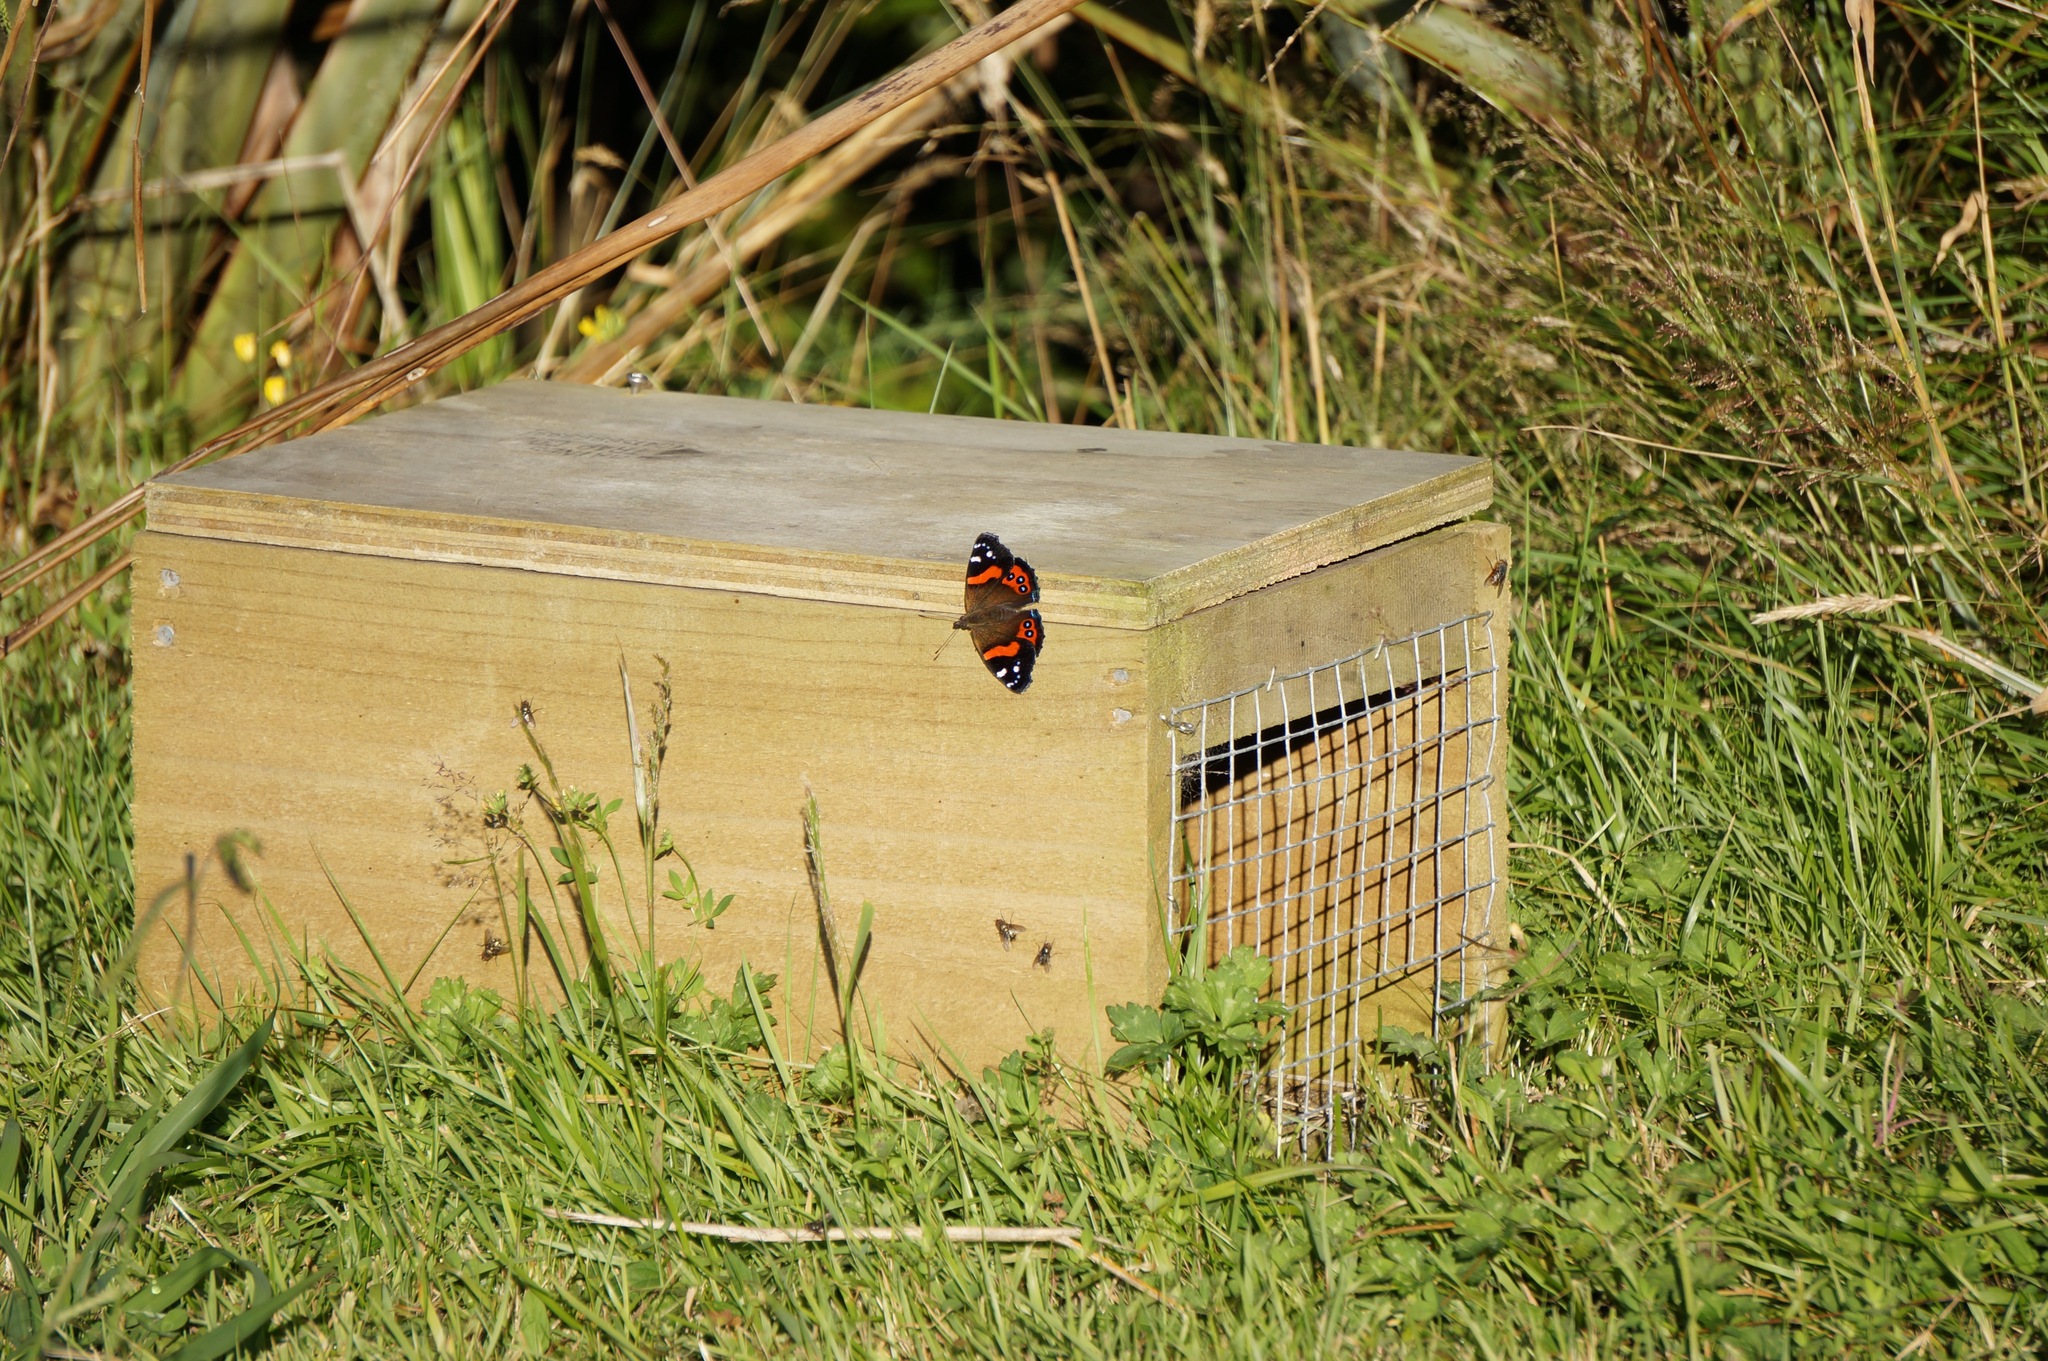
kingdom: Animalia
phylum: Arthropoda
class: Insecta
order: Lepidoptera
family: Nymphalidae
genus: Vanessa
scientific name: Vanessa gonerilla
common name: New zealand red admiral
